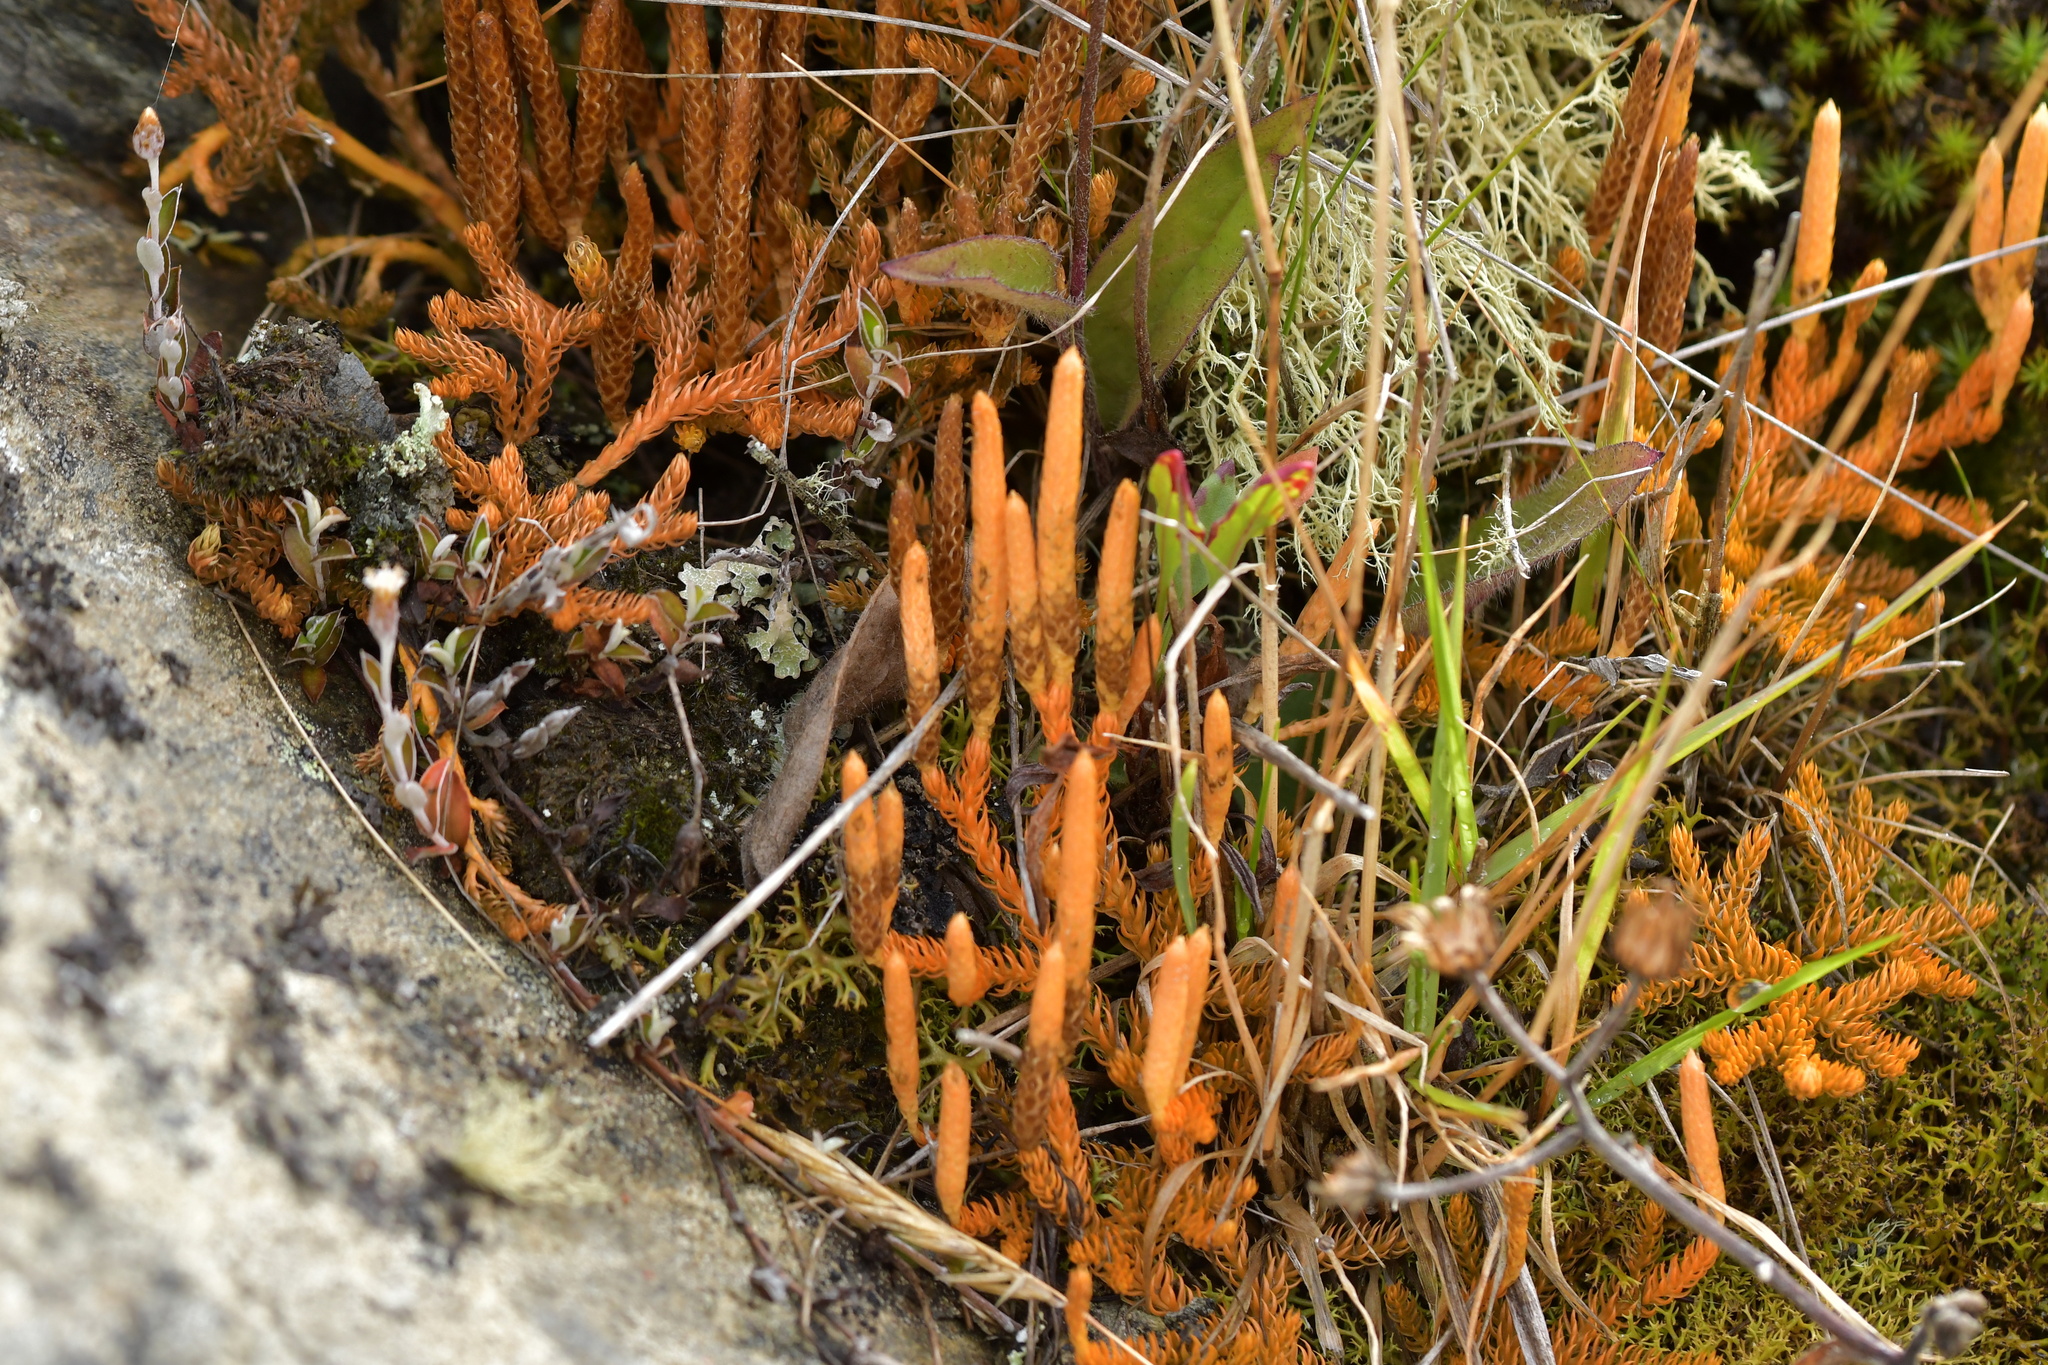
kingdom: Plantae
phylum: Tracheophyta
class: Lycopodiopsida
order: Lycopodiales
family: Lycopodiaceae
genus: Austrolycopodium
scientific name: Austrolycopodium fastigiatum
